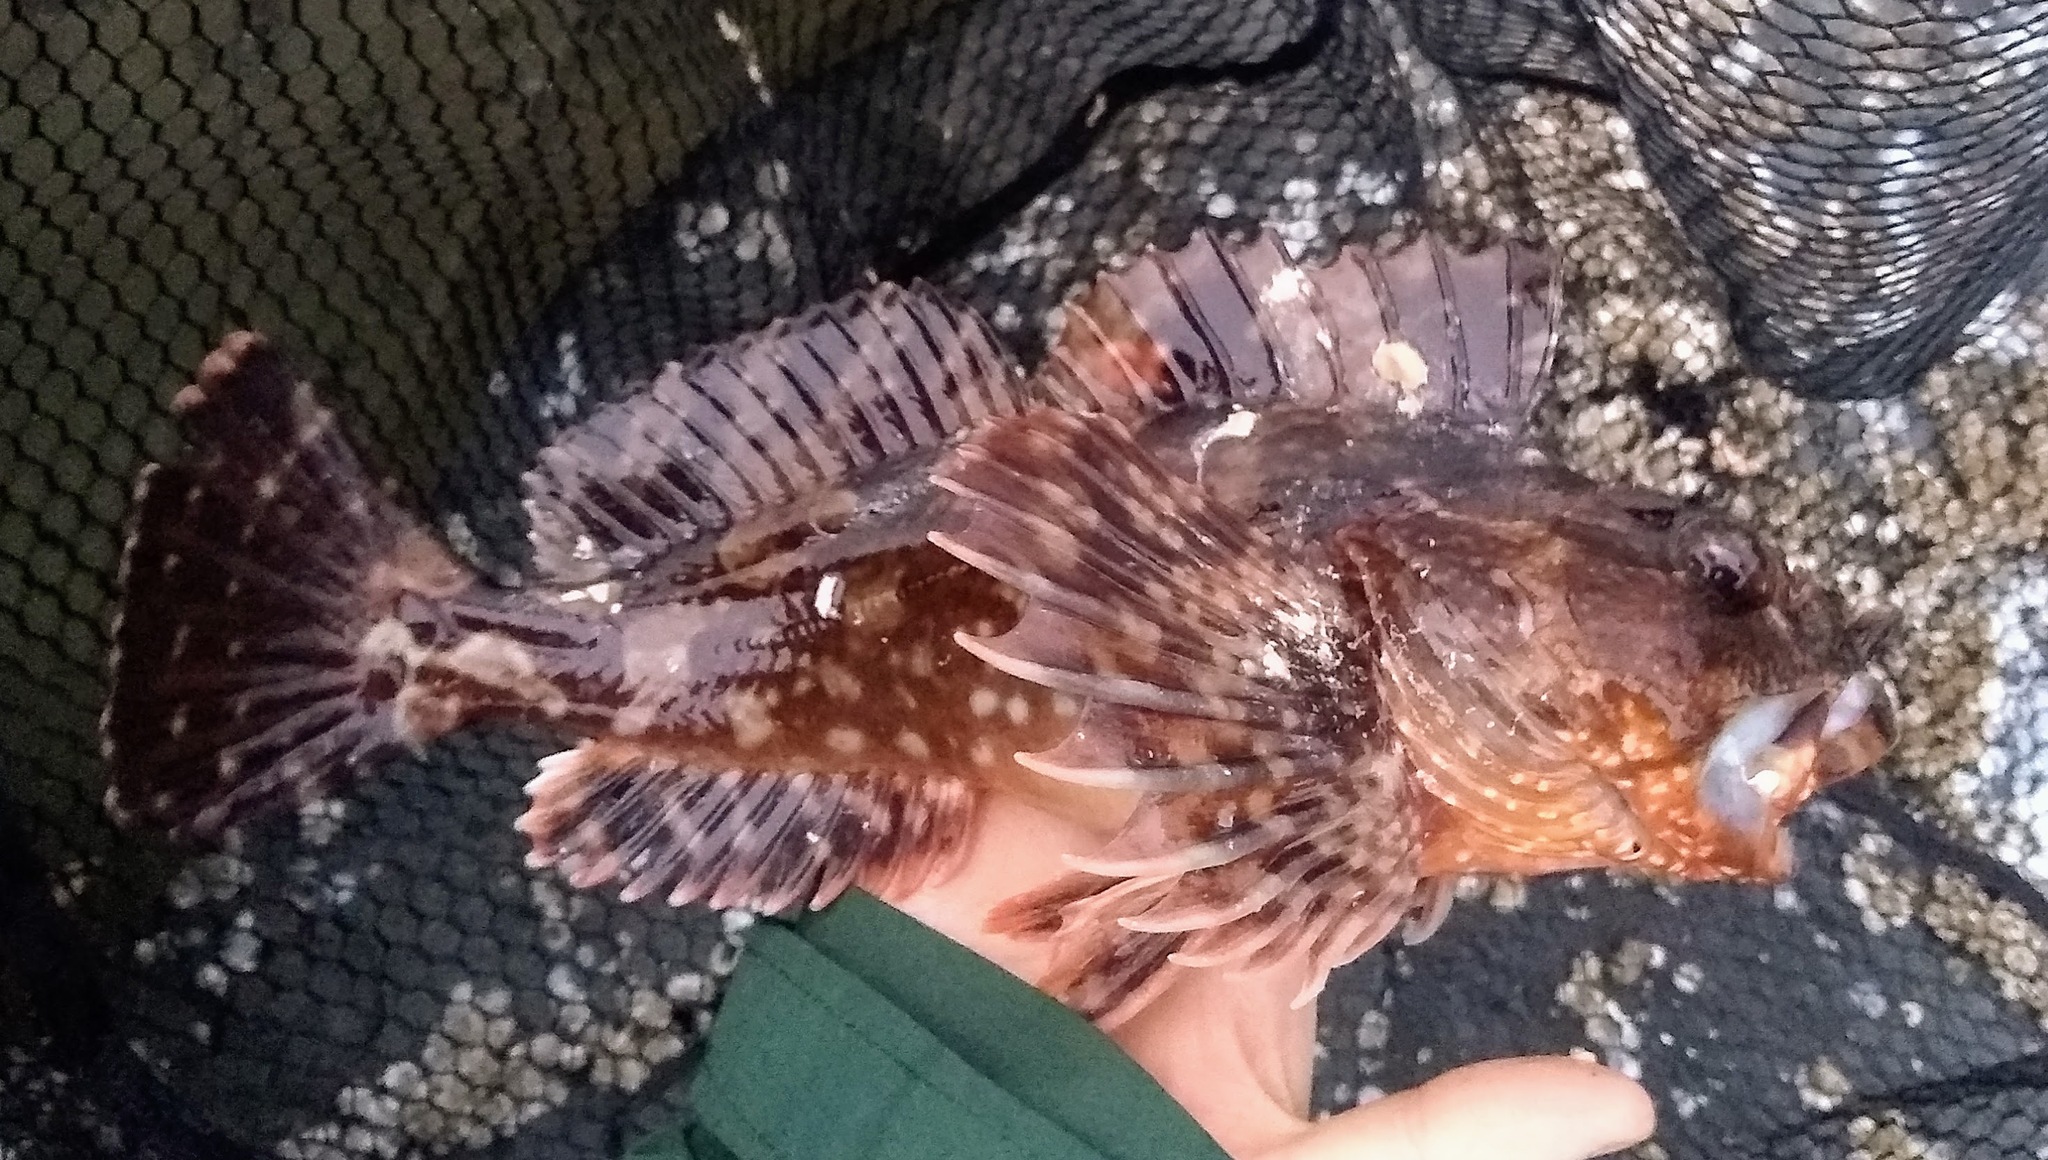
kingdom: Animalia
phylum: Chordata
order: Scorpaeniformes
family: Cottidae
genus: Scorpaenichthys
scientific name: Scorpaenichthys marmoratus
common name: Cabezon
